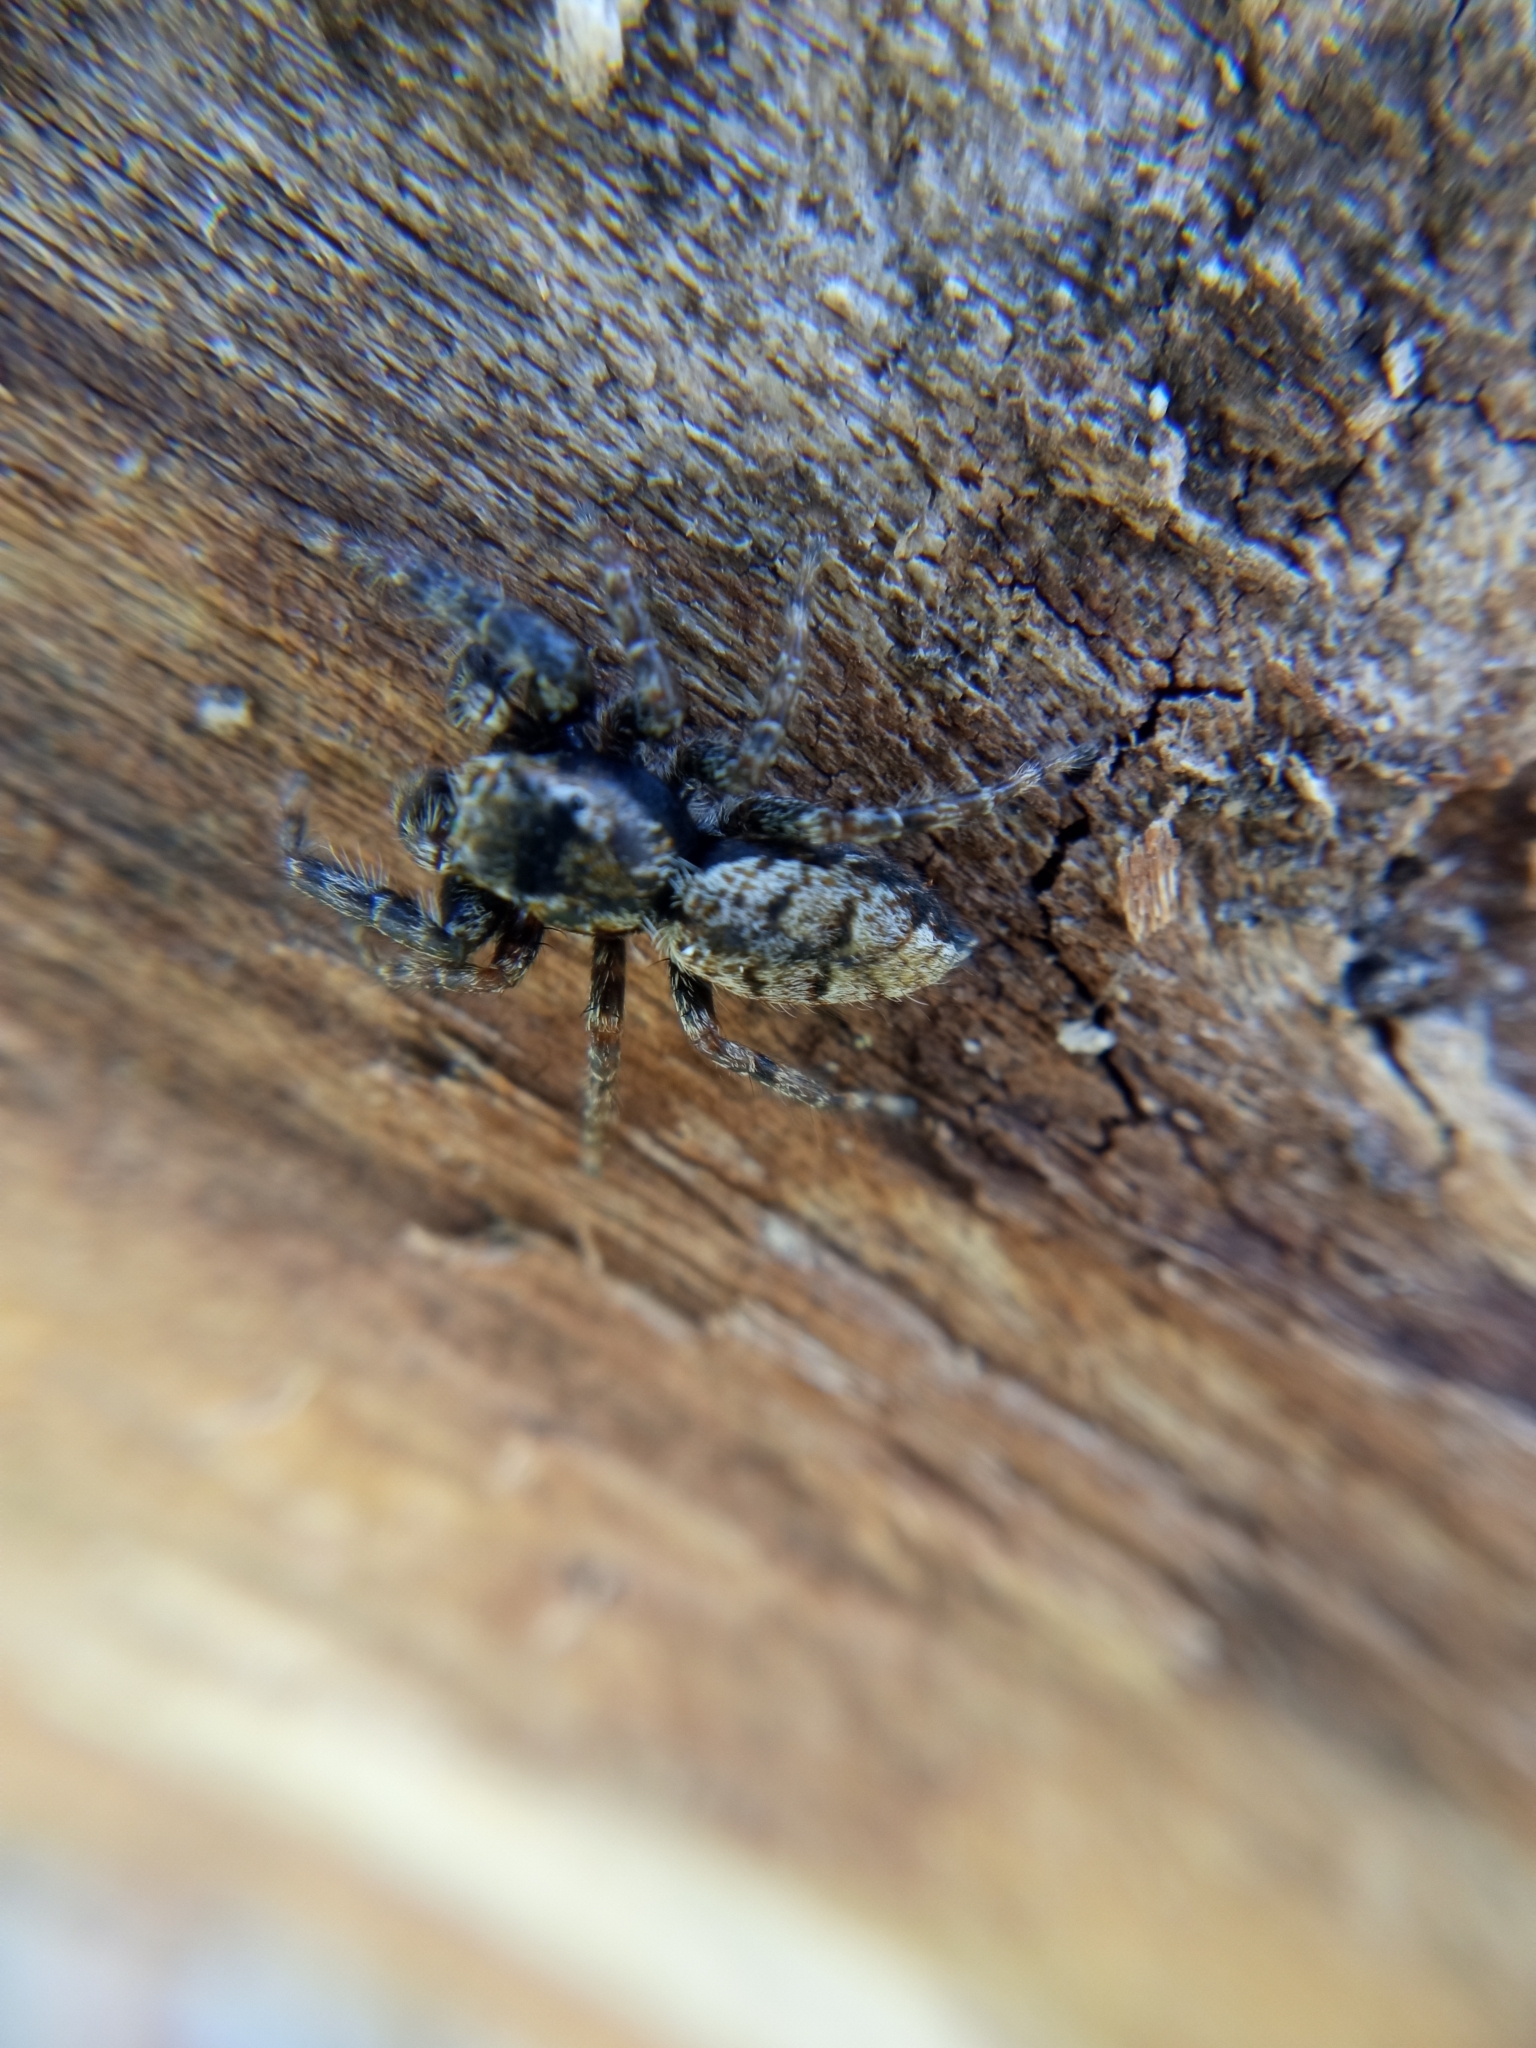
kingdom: Animalia
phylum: Arthropoda
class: Arachnida
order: Araneae
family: Salticidae
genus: Marpissa
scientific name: Marpissa muscosa
